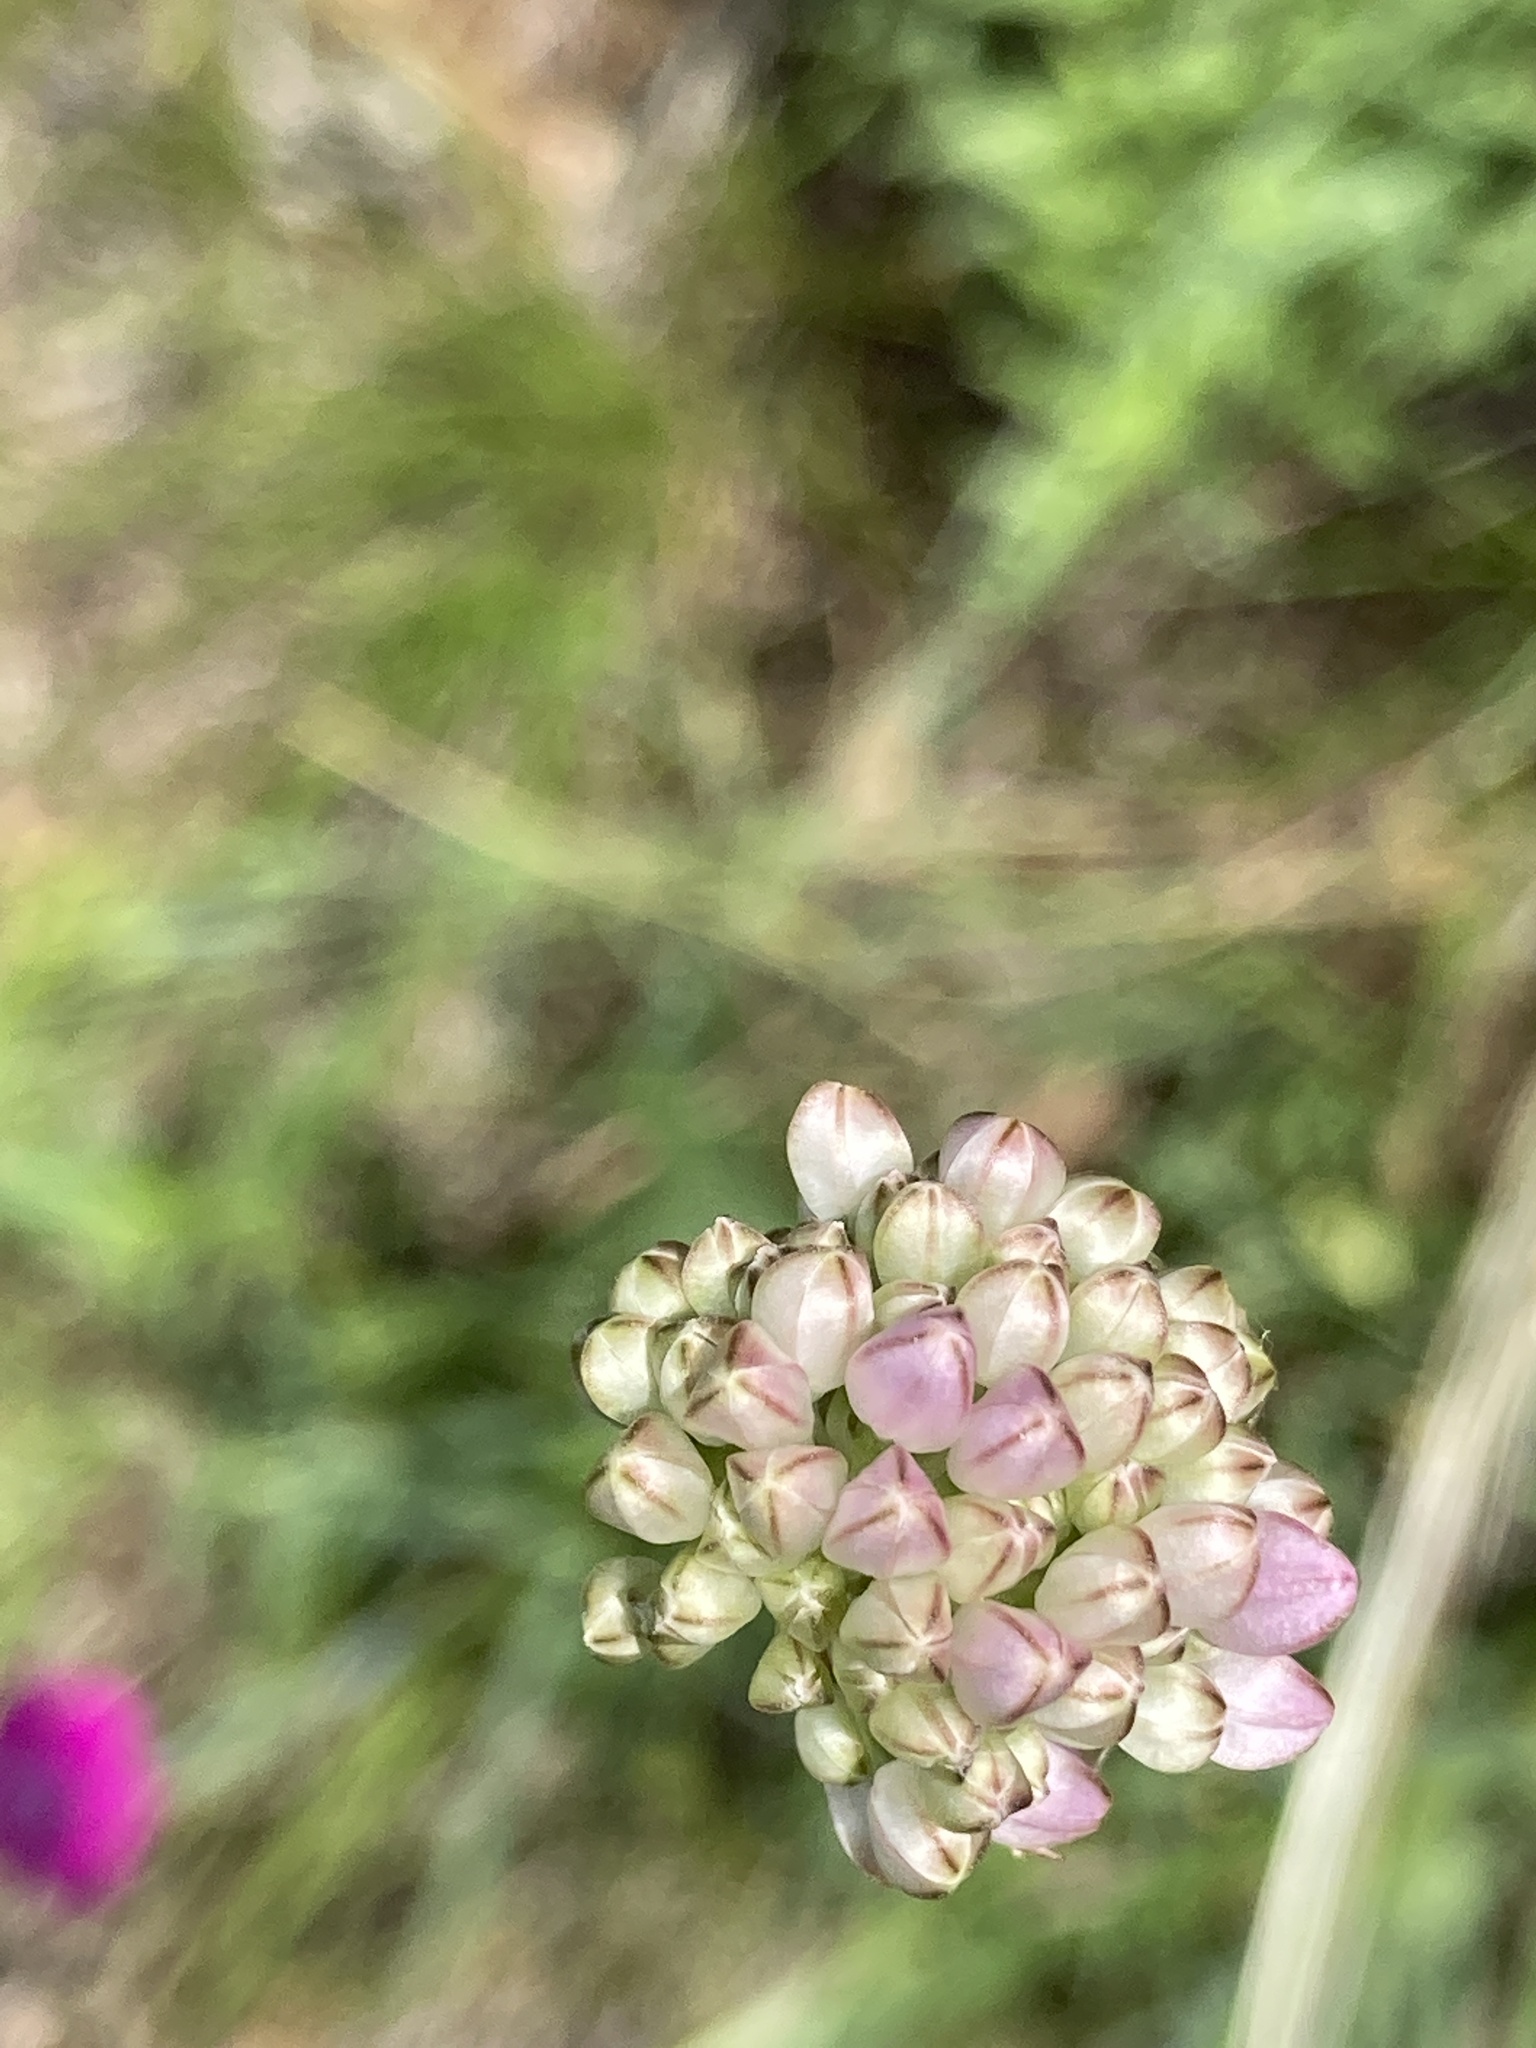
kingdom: Plantae
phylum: Tracheophyta
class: Liliopsida
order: Asparagales
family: Amaryllidaceae
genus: Allium
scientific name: Allium strictum
